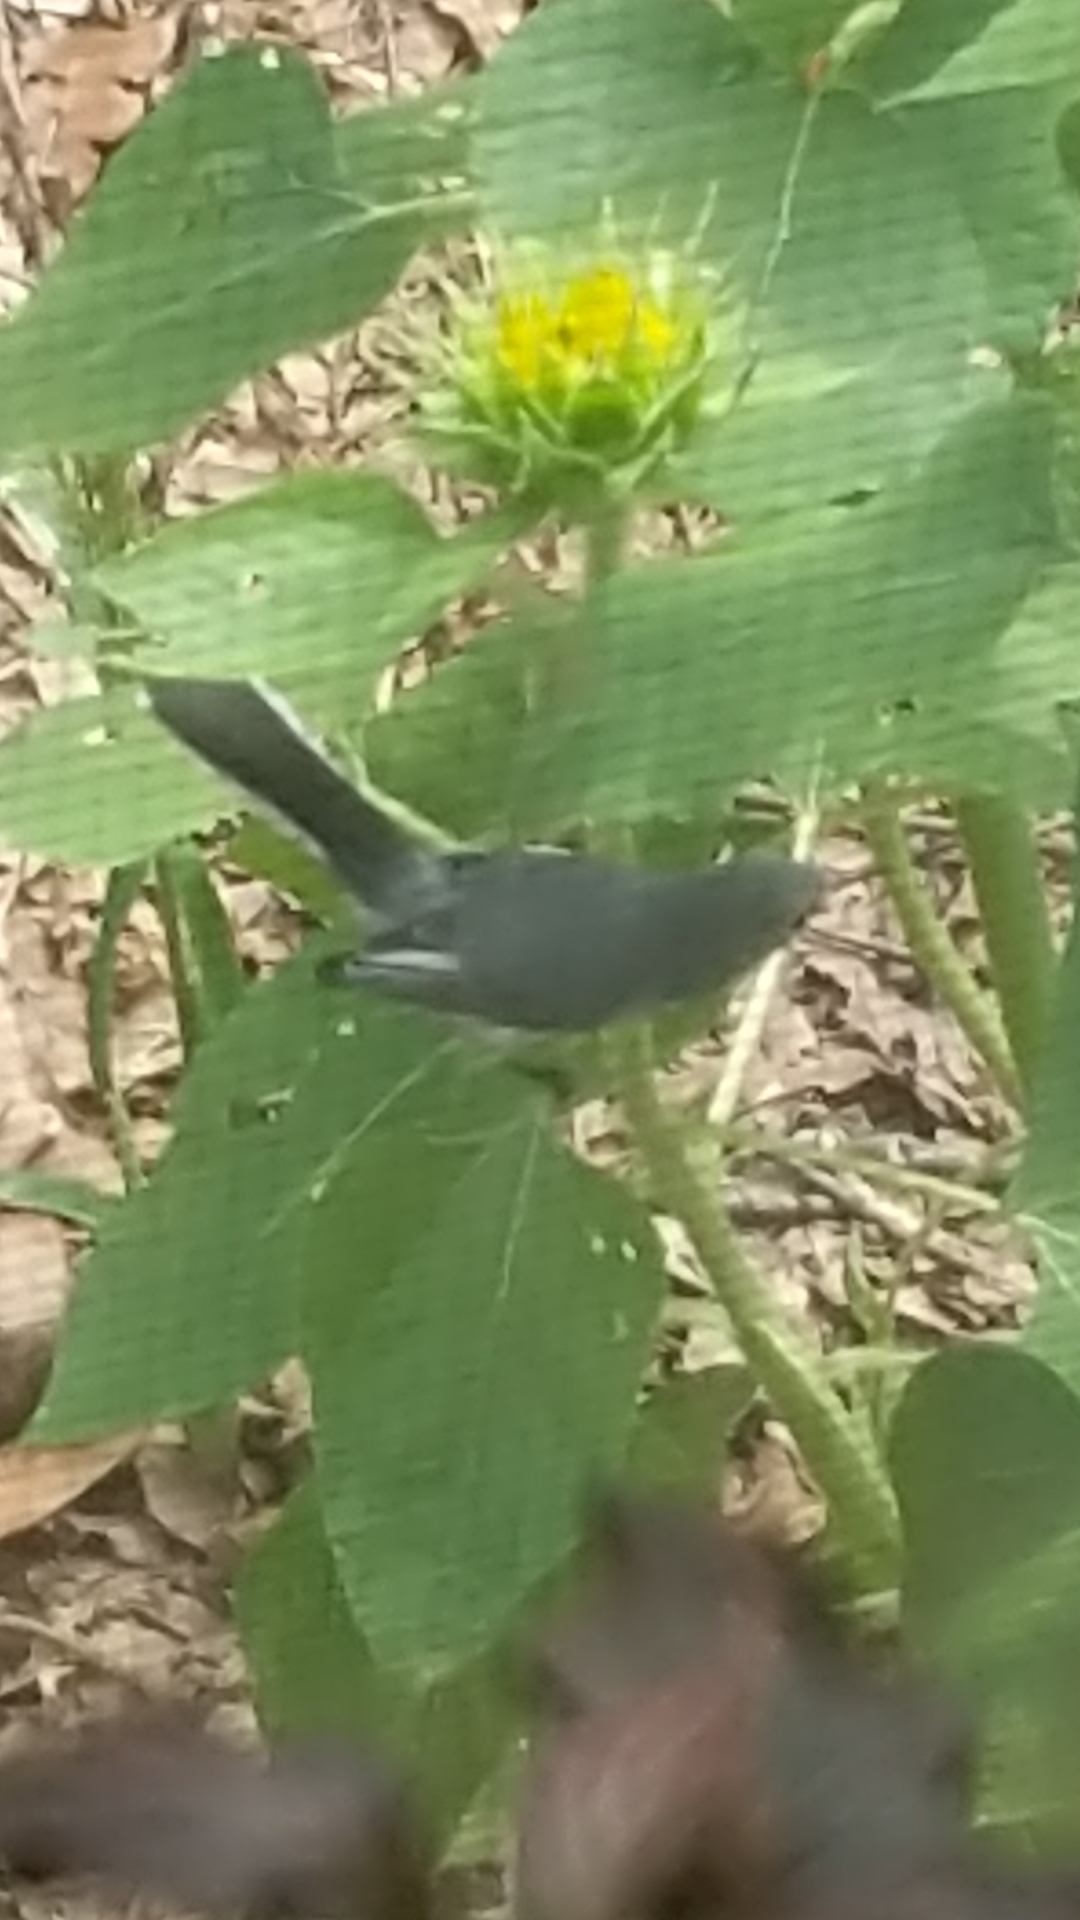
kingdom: Animalia
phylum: Chordata
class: Aves
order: Passeriformes
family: Polioptilidae
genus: Polioptila
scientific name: Polioptila caerulea
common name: Blue-gray gnatcatcher
